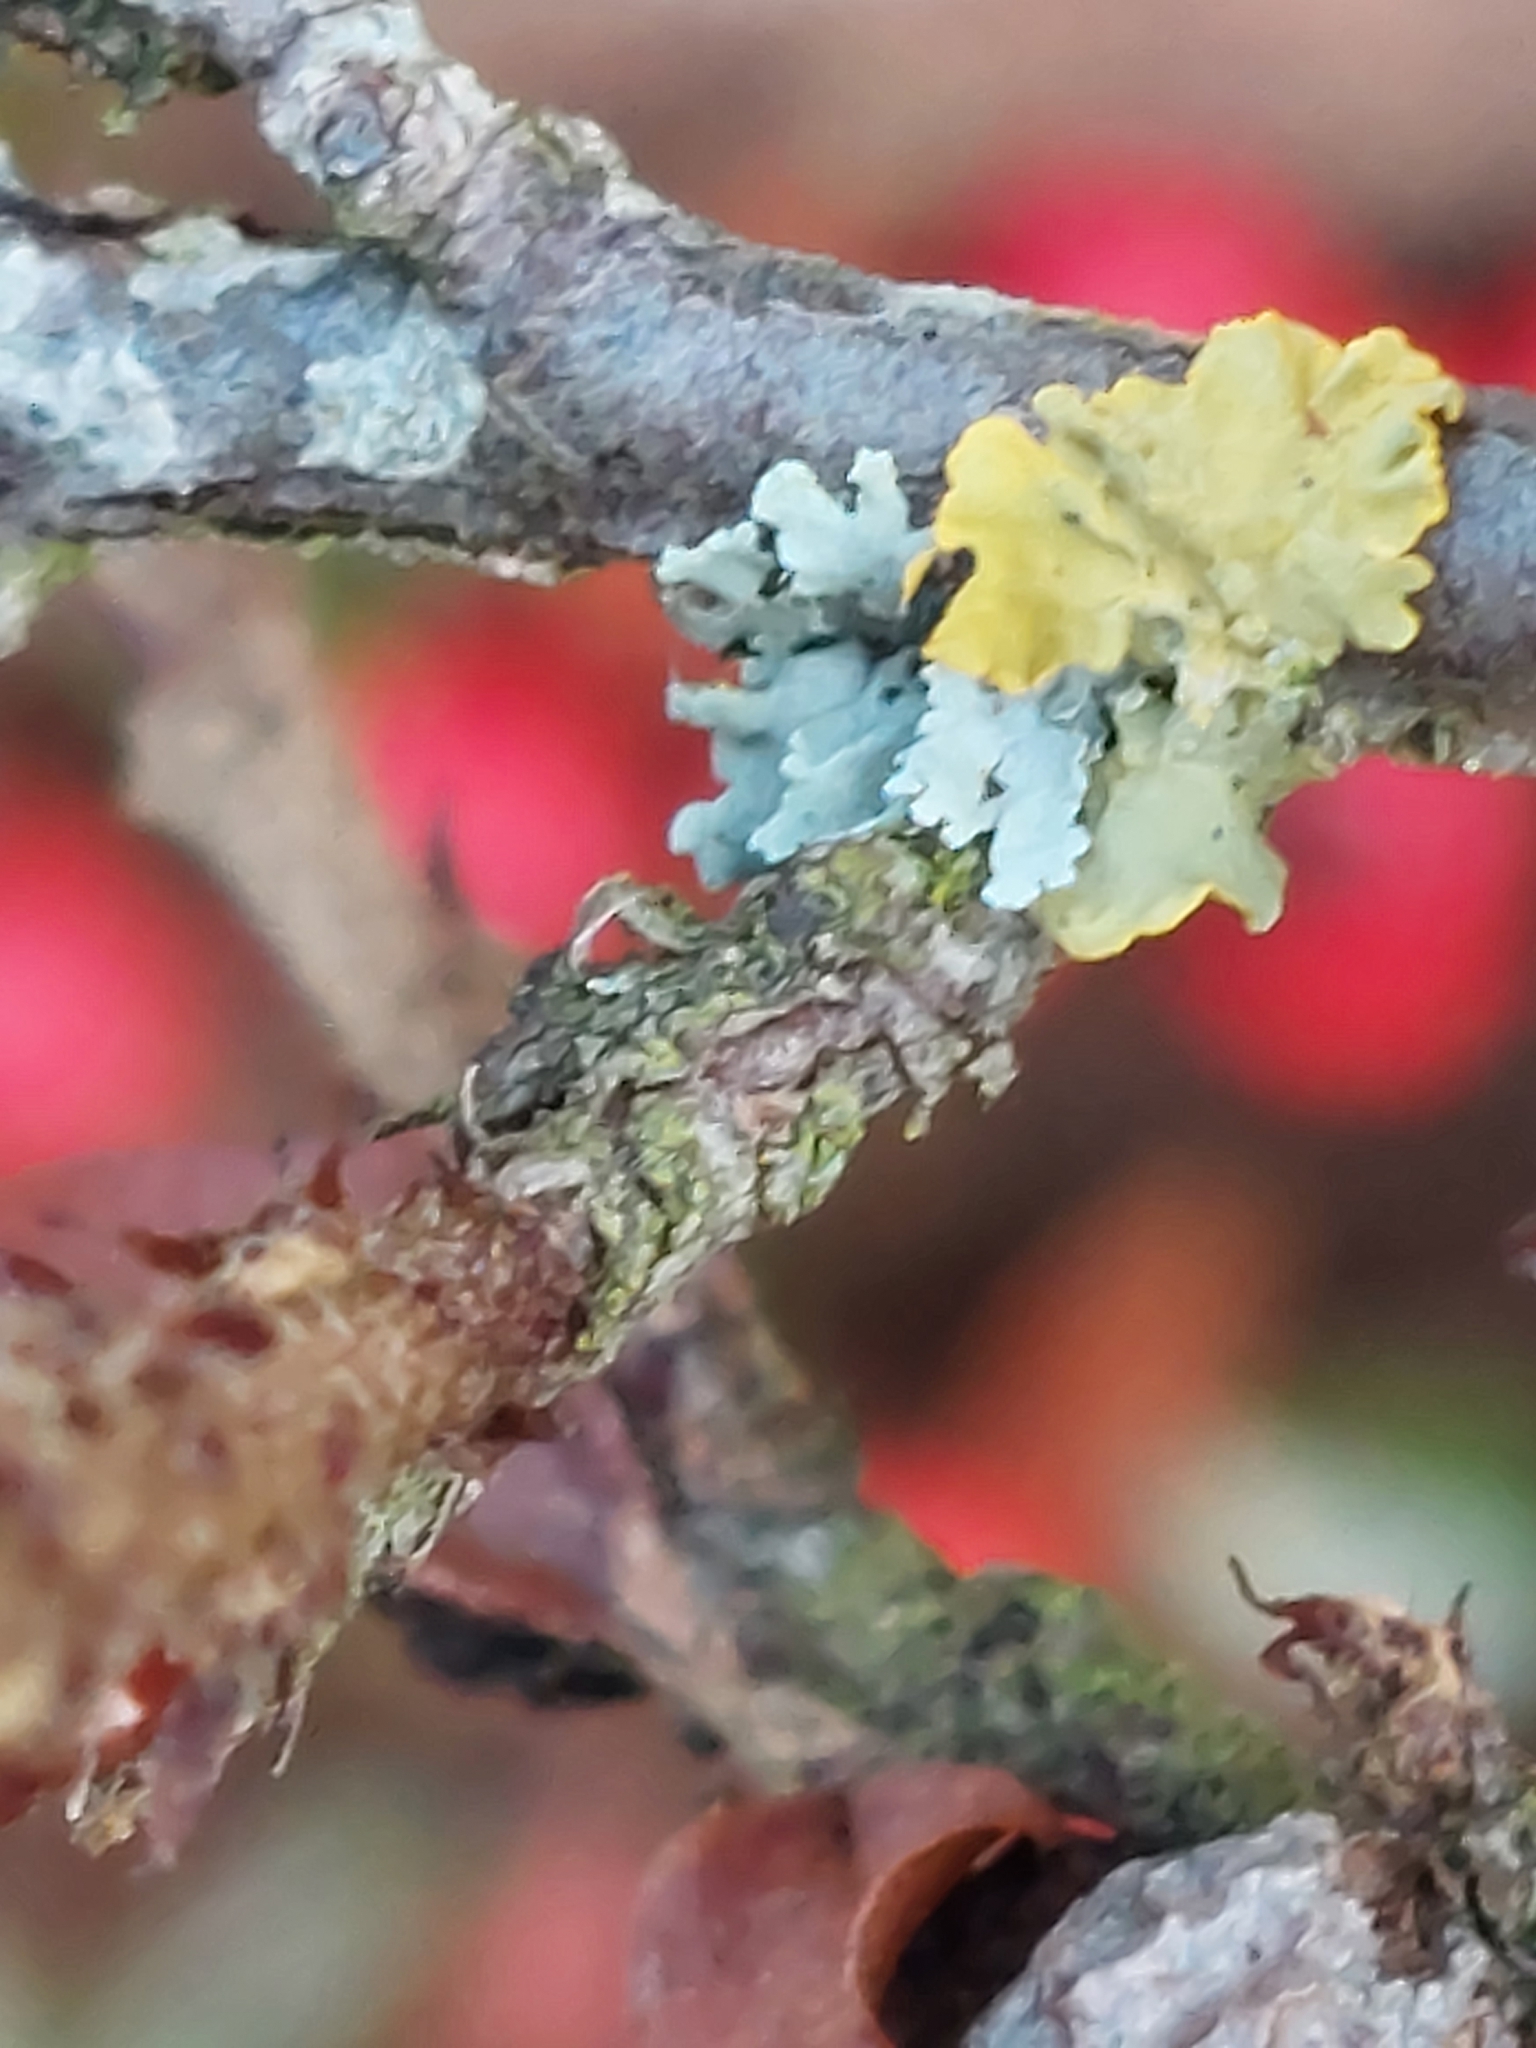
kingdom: Fungi
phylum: Ascomycota
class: Lecanoromycetes
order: Teloschistales
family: Teloschistaceae
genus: Xanthoria
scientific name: Xanthoria parietina
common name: Common orange lichen
